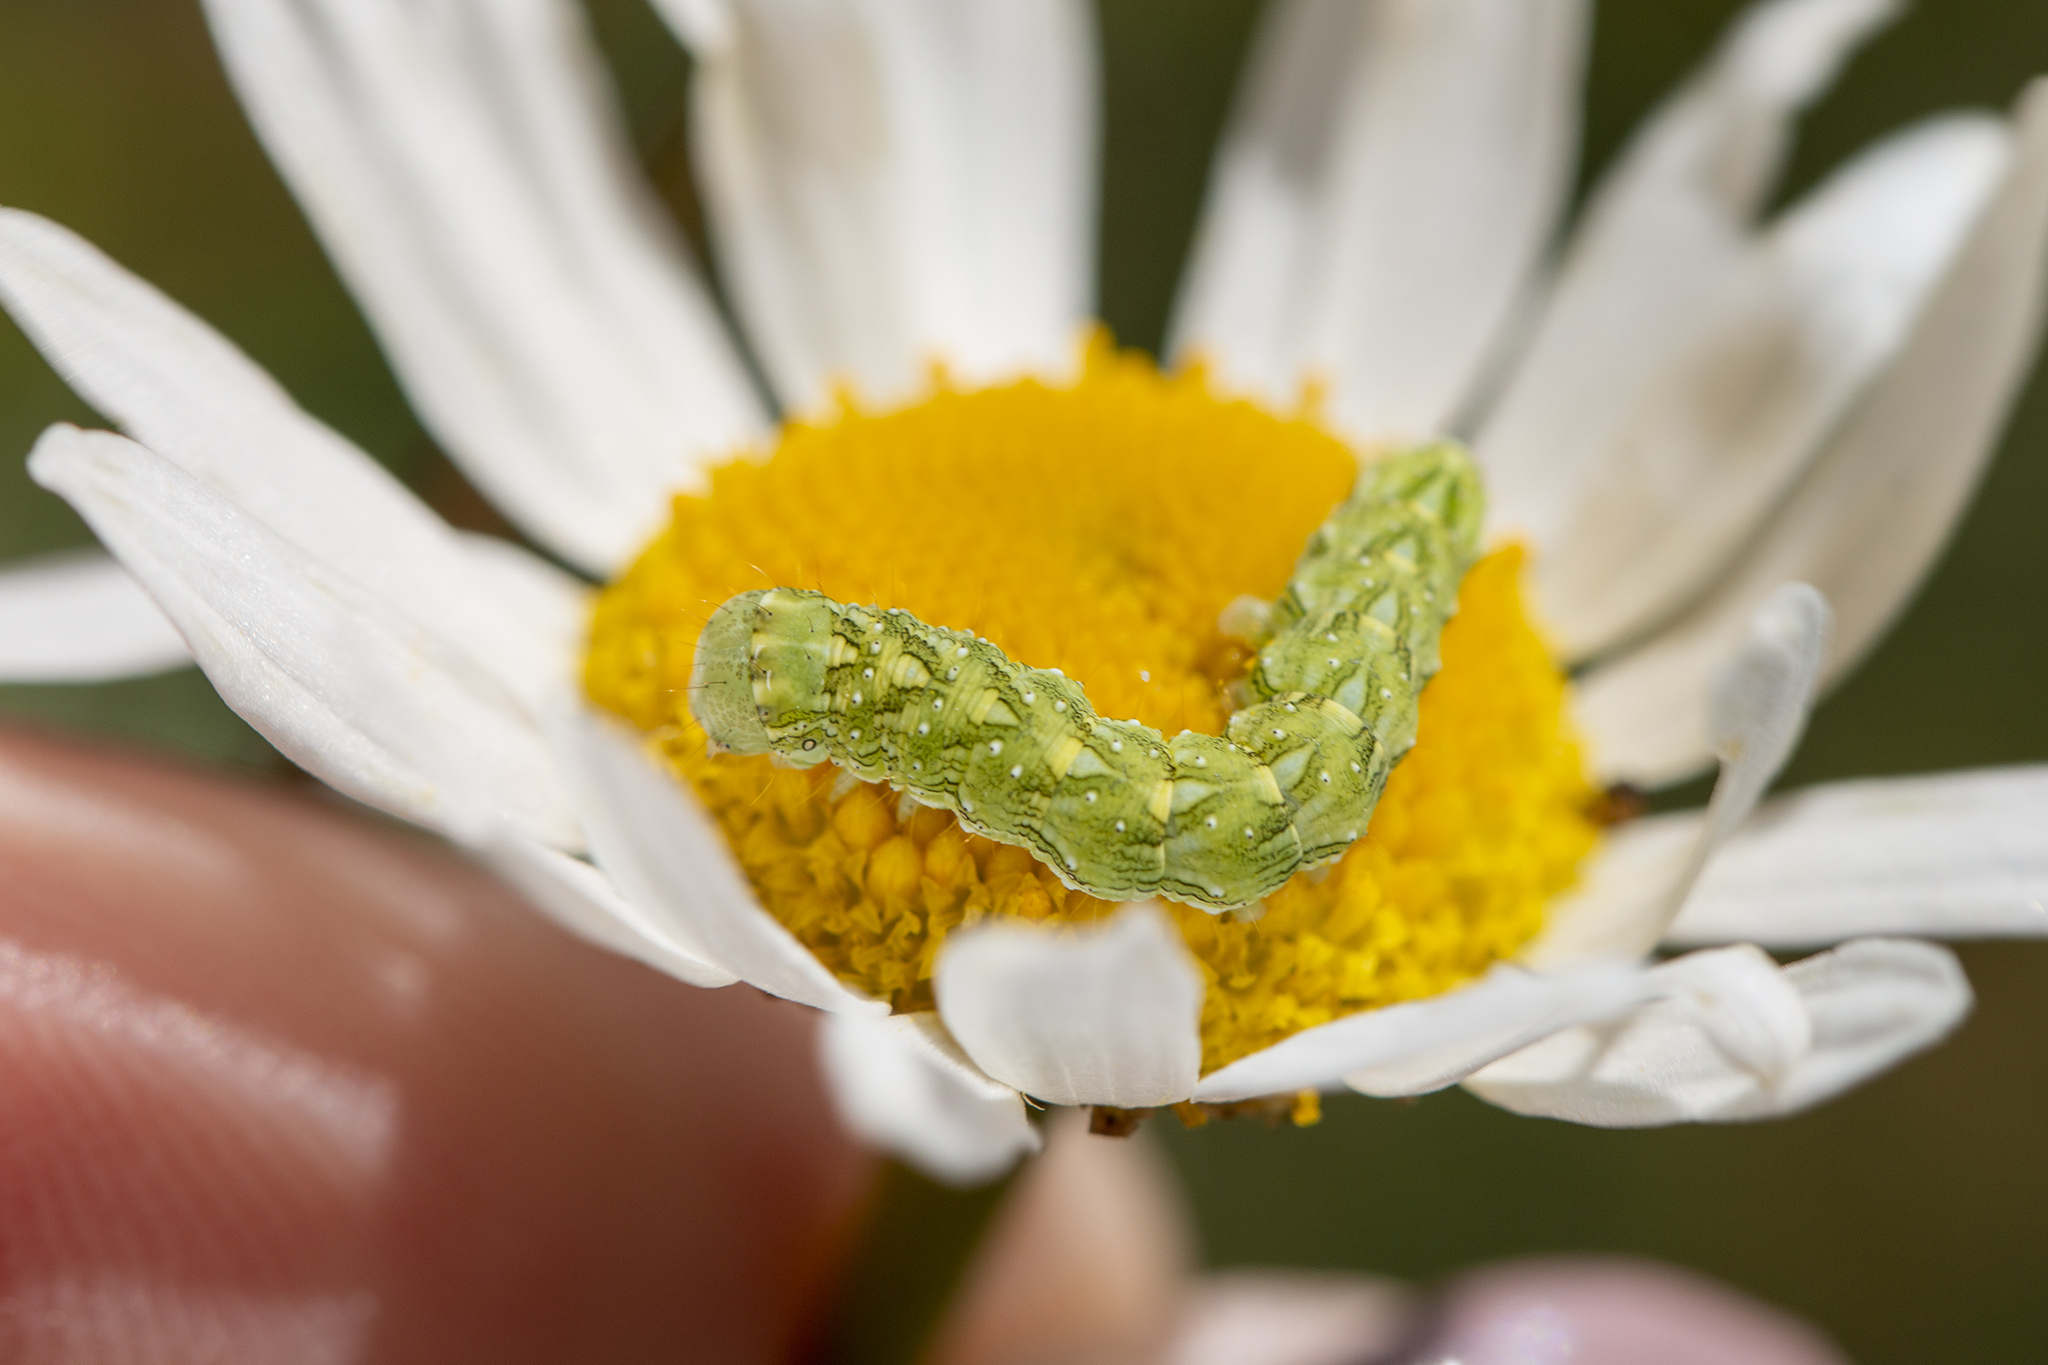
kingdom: Animalia
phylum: Arthropoda
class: Insecta
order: Lepidoptera
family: Noctuidae
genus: Cucullia
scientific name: Cucullia chamomillae
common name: Chamomile shark
